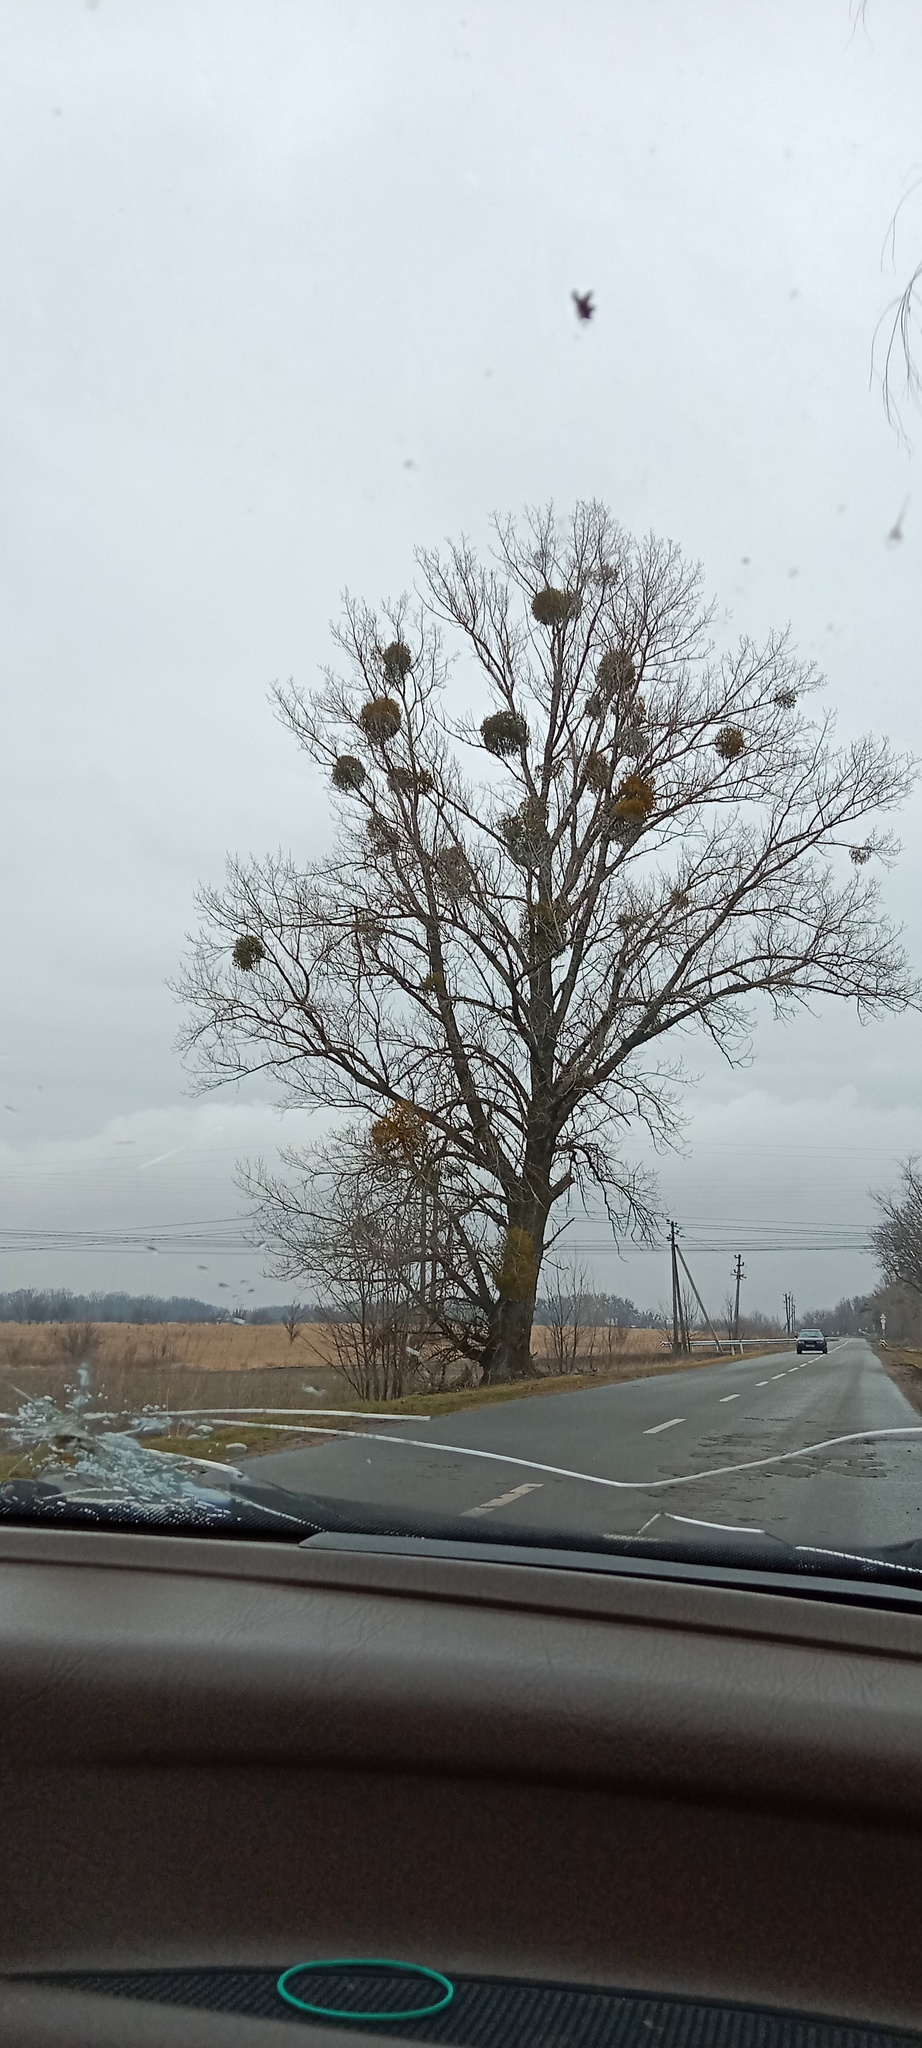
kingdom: Plantae
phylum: Tracheophyta
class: Magnoliopsida
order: Santalales
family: Viscaceae
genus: Viscum
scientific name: Viscum album
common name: Mistletoe
